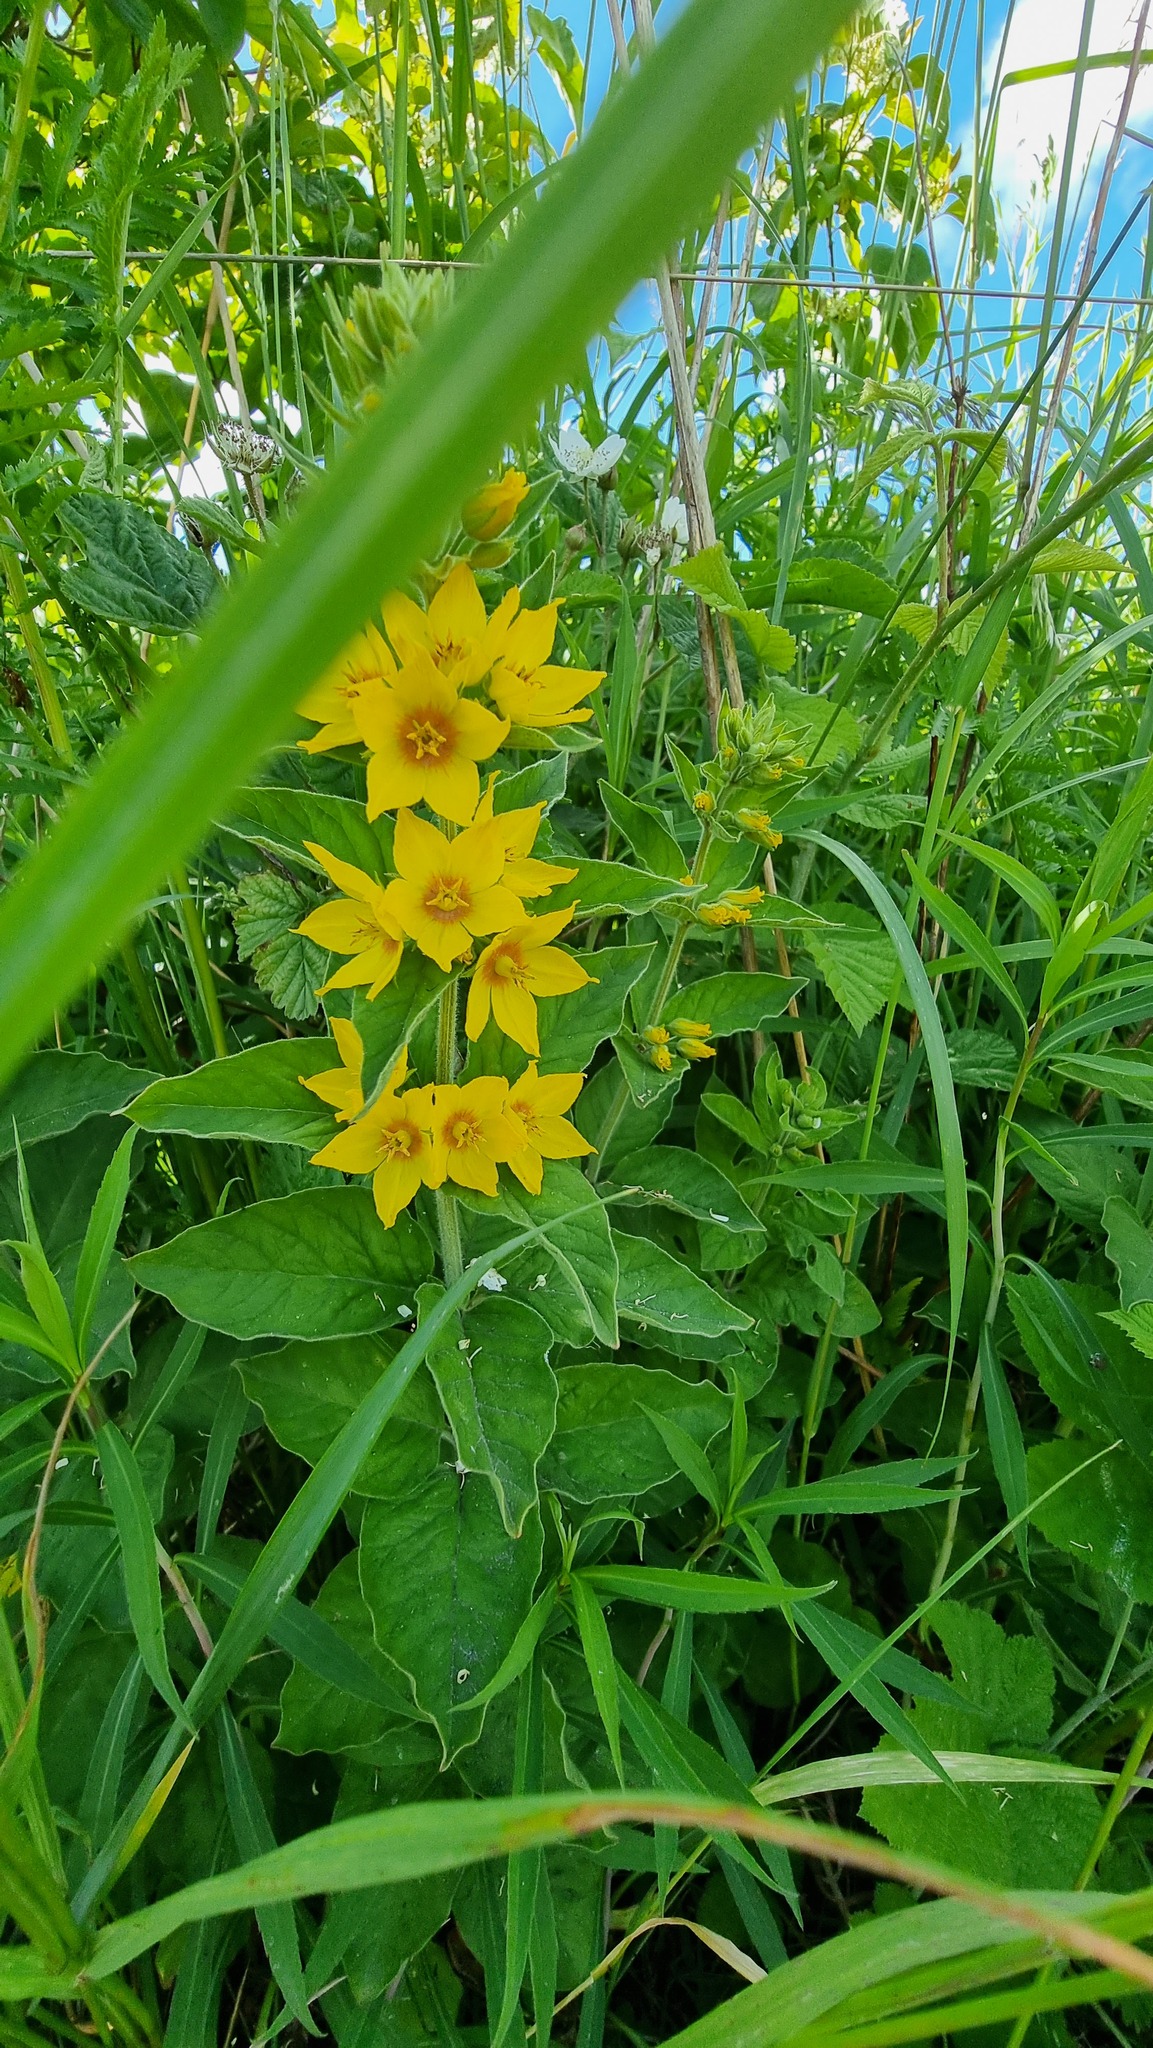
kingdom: Plantae
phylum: Tracheophyta
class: Magnoliopsida
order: Ericales
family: Primulaceae
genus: Lysimachia
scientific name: Lysimachia punctata
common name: Dotted loosestrife
